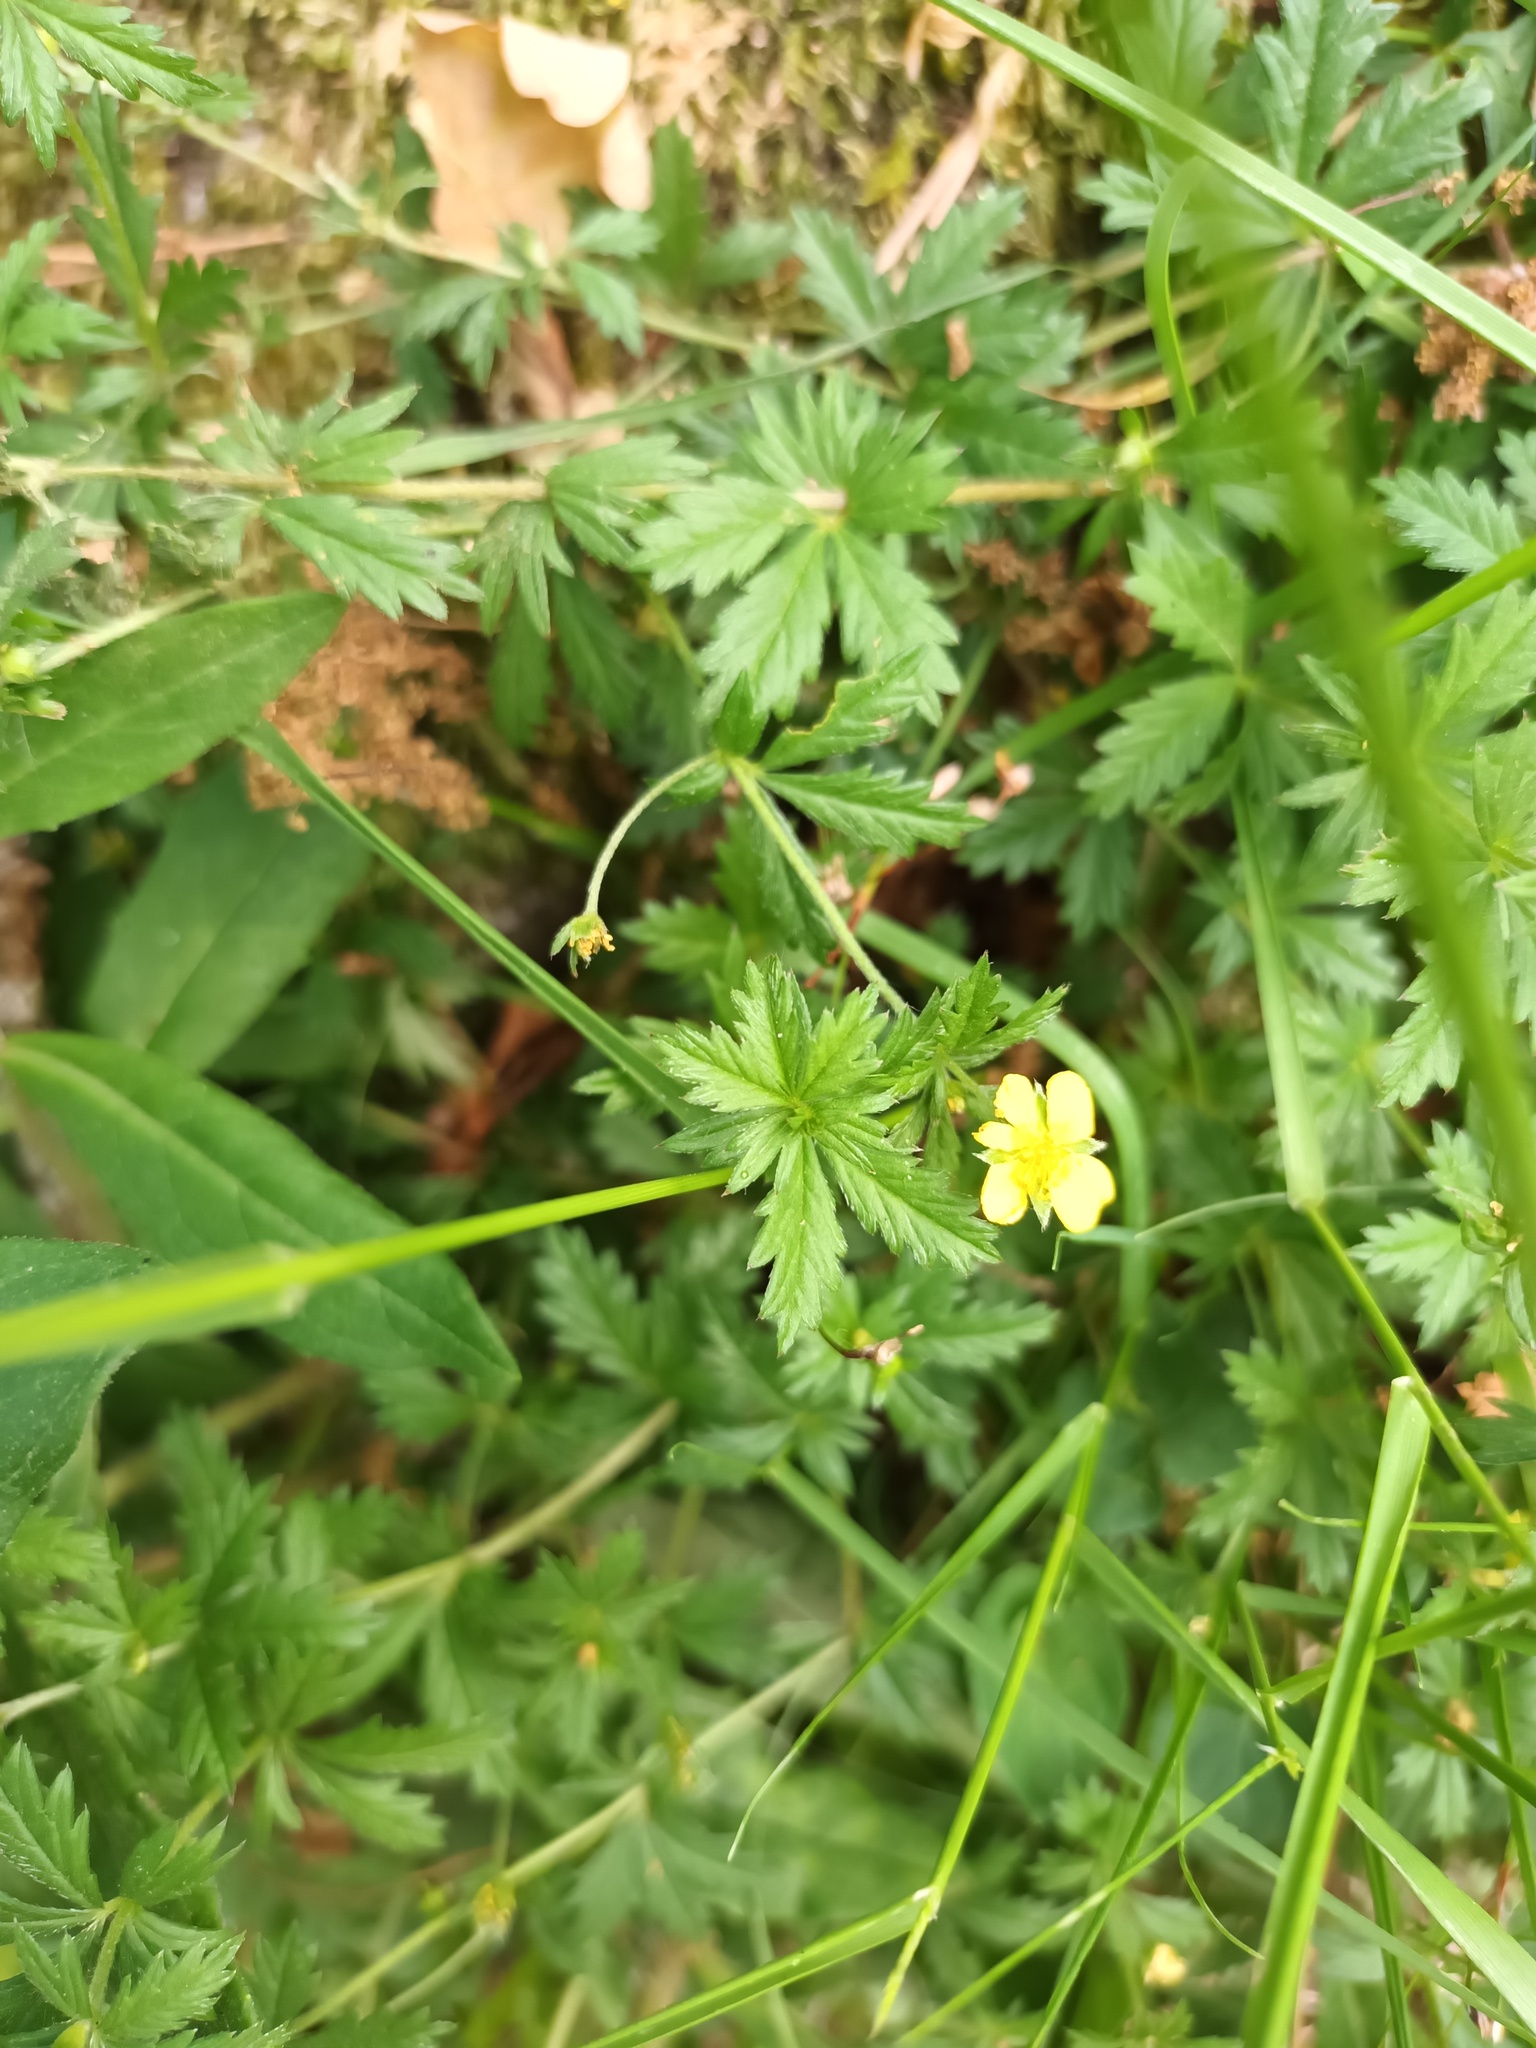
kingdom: Plantae
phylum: Tracheophyta
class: Magnoliopsida
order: Rosales
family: Rosaceae
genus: Potentilla
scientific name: Potentilla erecta
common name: Tormentil
